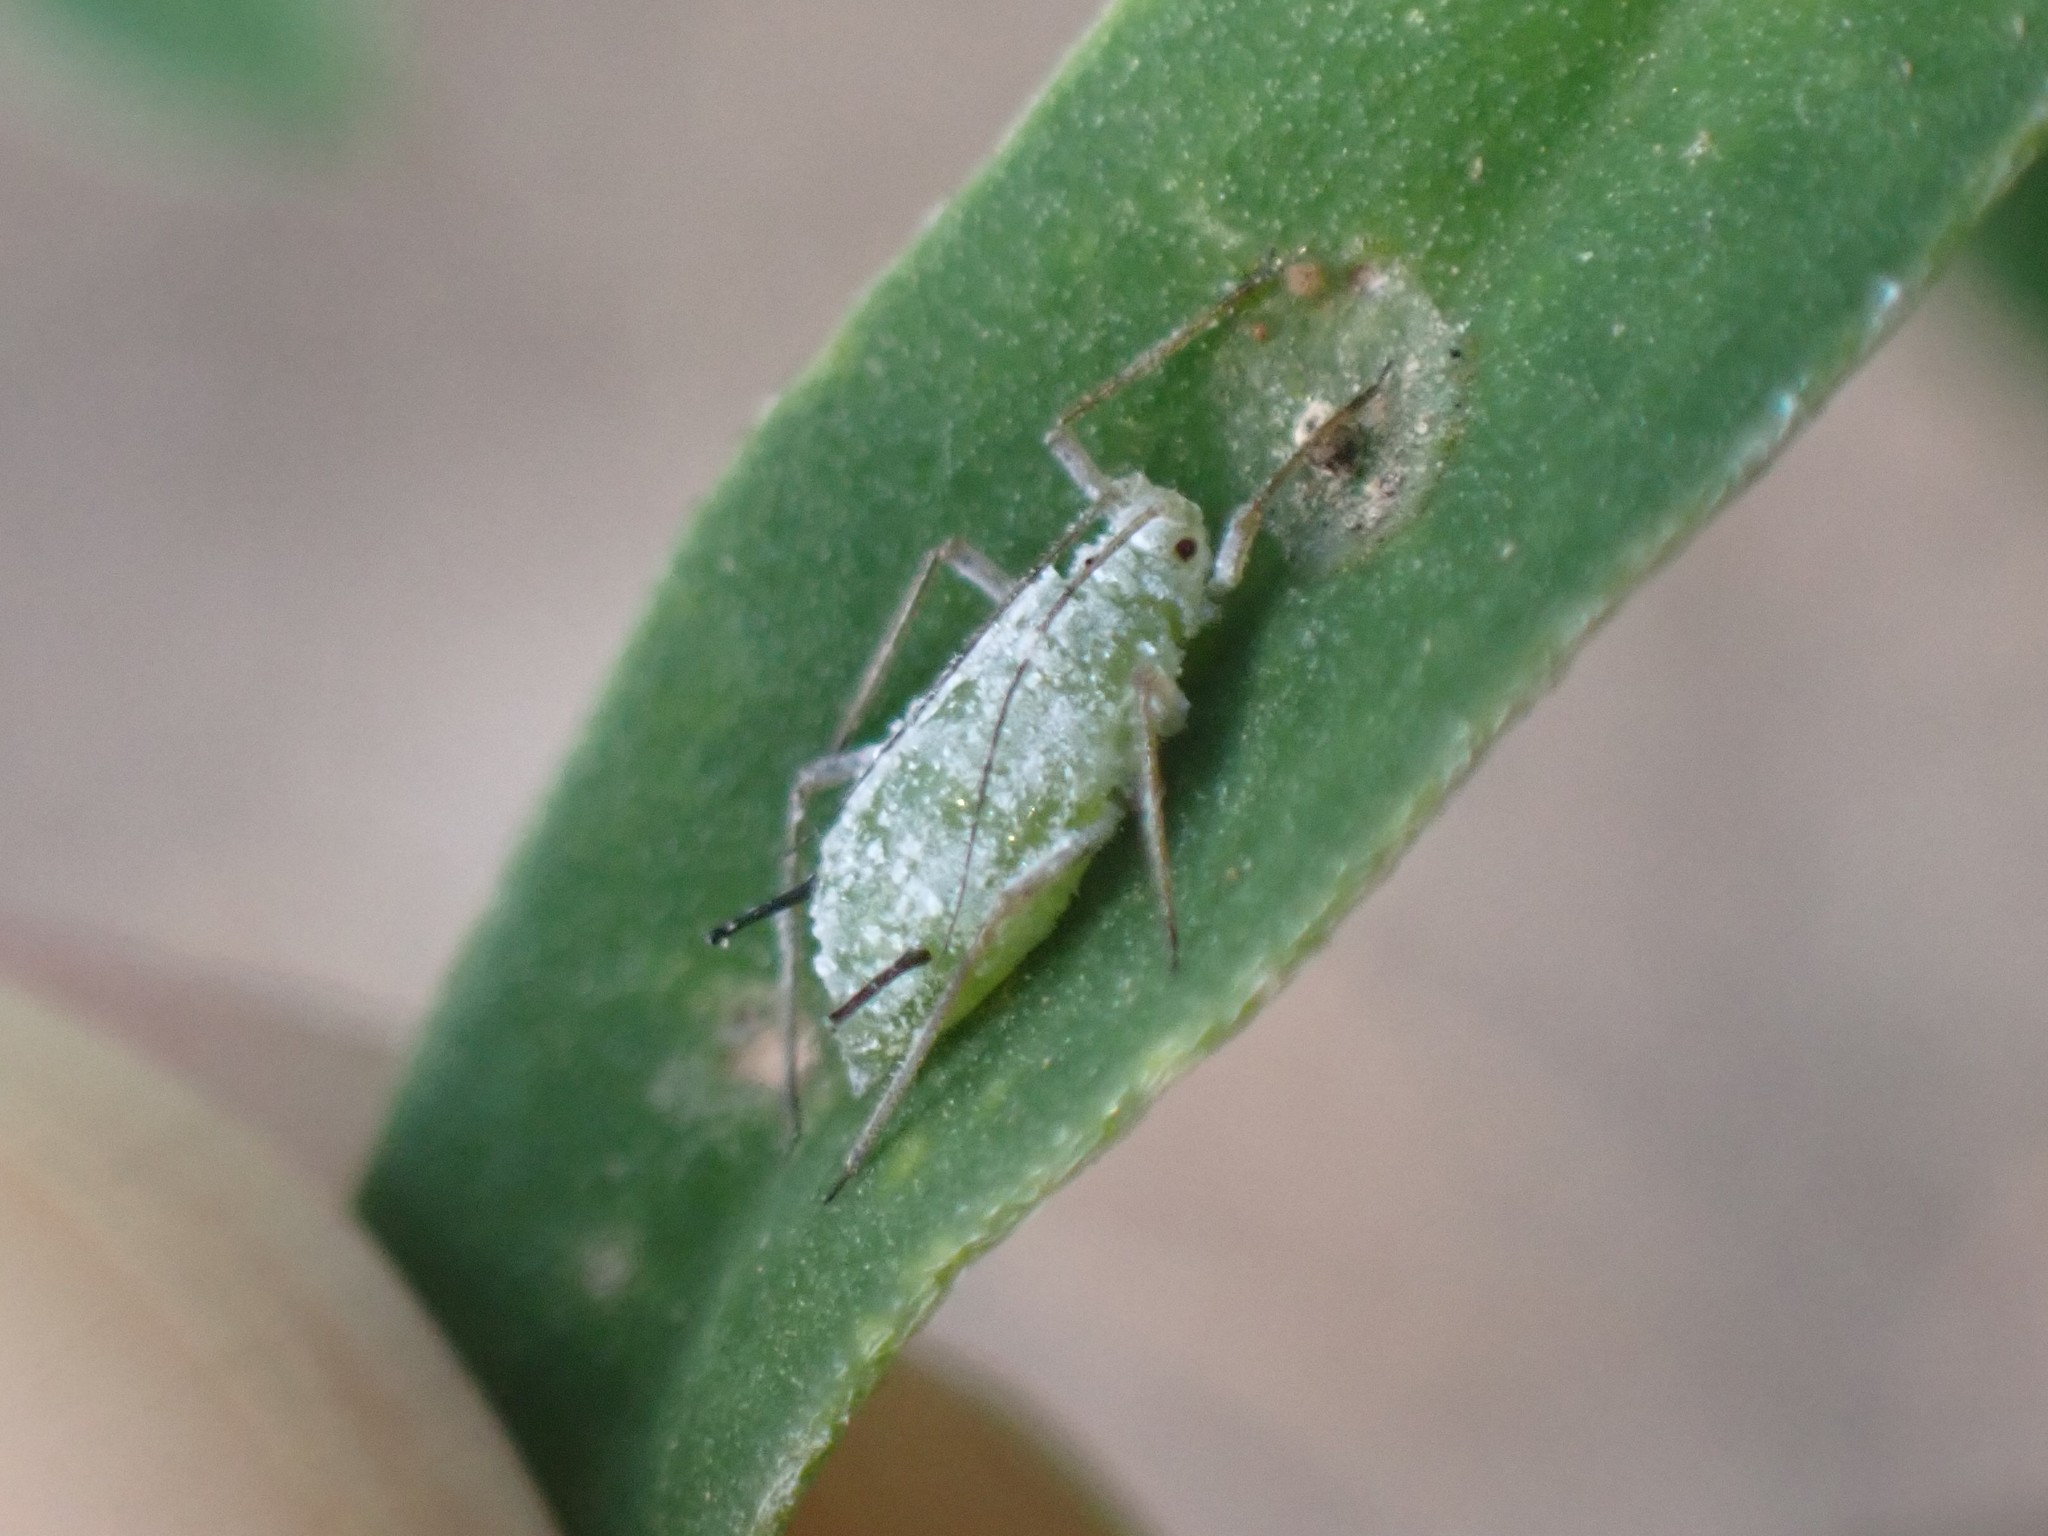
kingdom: Animalia
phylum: Arthropoda
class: Insecta
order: Hemiptera
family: Aphididae
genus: Macrosiphum
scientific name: Macrosiphum albifrons
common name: Lupine aphid
